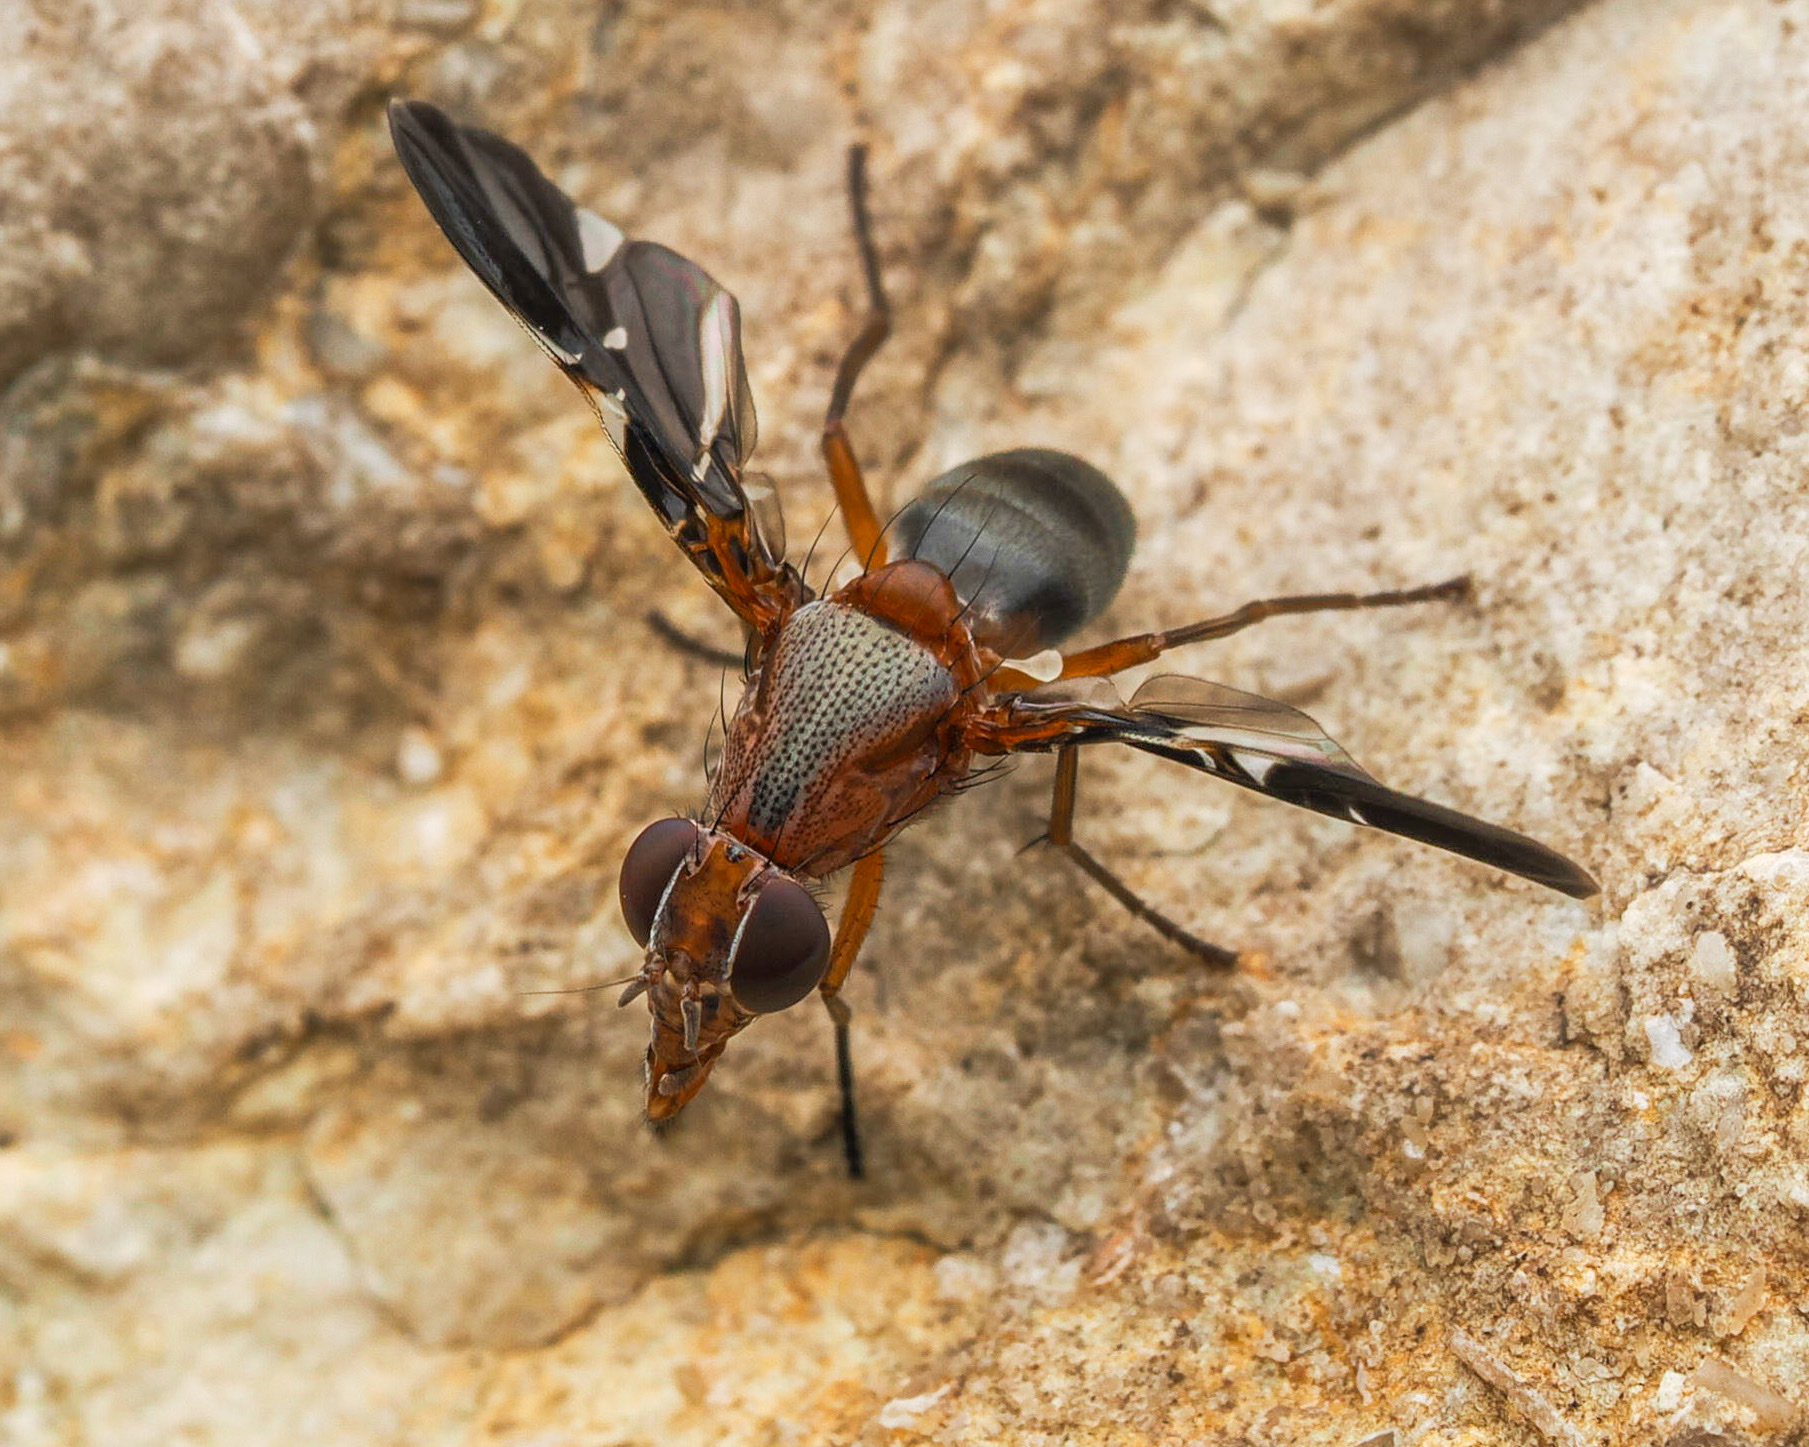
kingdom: Animalia
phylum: Arthropoda
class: Insecta
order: Diptera
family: Ulidiidae
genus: Delphinia
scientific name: Delphinia picta
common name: Common picture-winged fly
